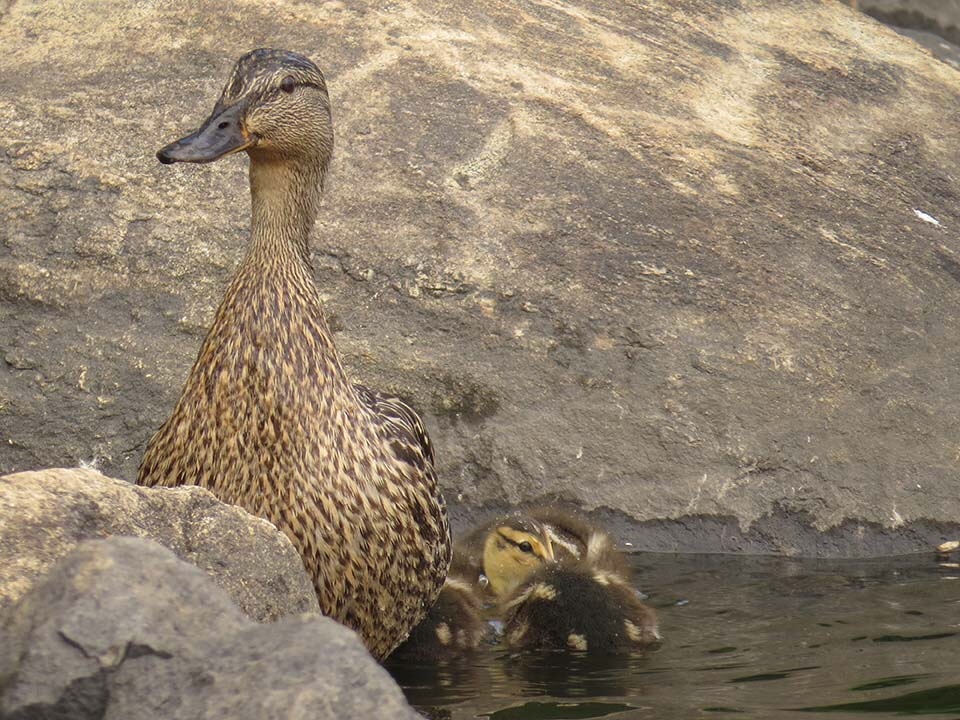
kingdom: Animalia
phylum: Chordata
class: Aves
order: Anseriformes
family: Anatidae
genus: Anas
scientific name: Anas platyrhynchos
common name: Mallard
